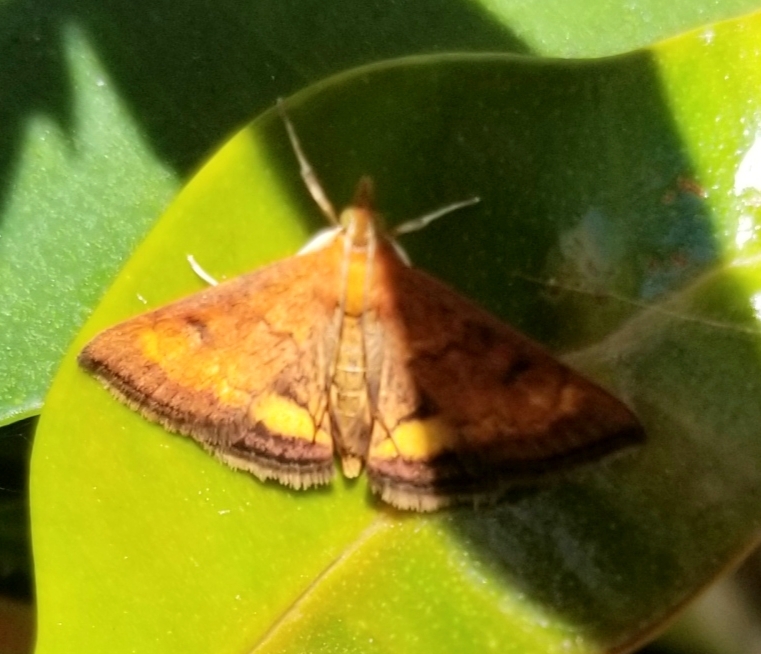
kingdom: Animalia
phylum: Arthropoda
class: Insecta
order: Lepidoptera
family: Crambidae
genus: Pyrausta
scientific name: Pyrausta californicalis
